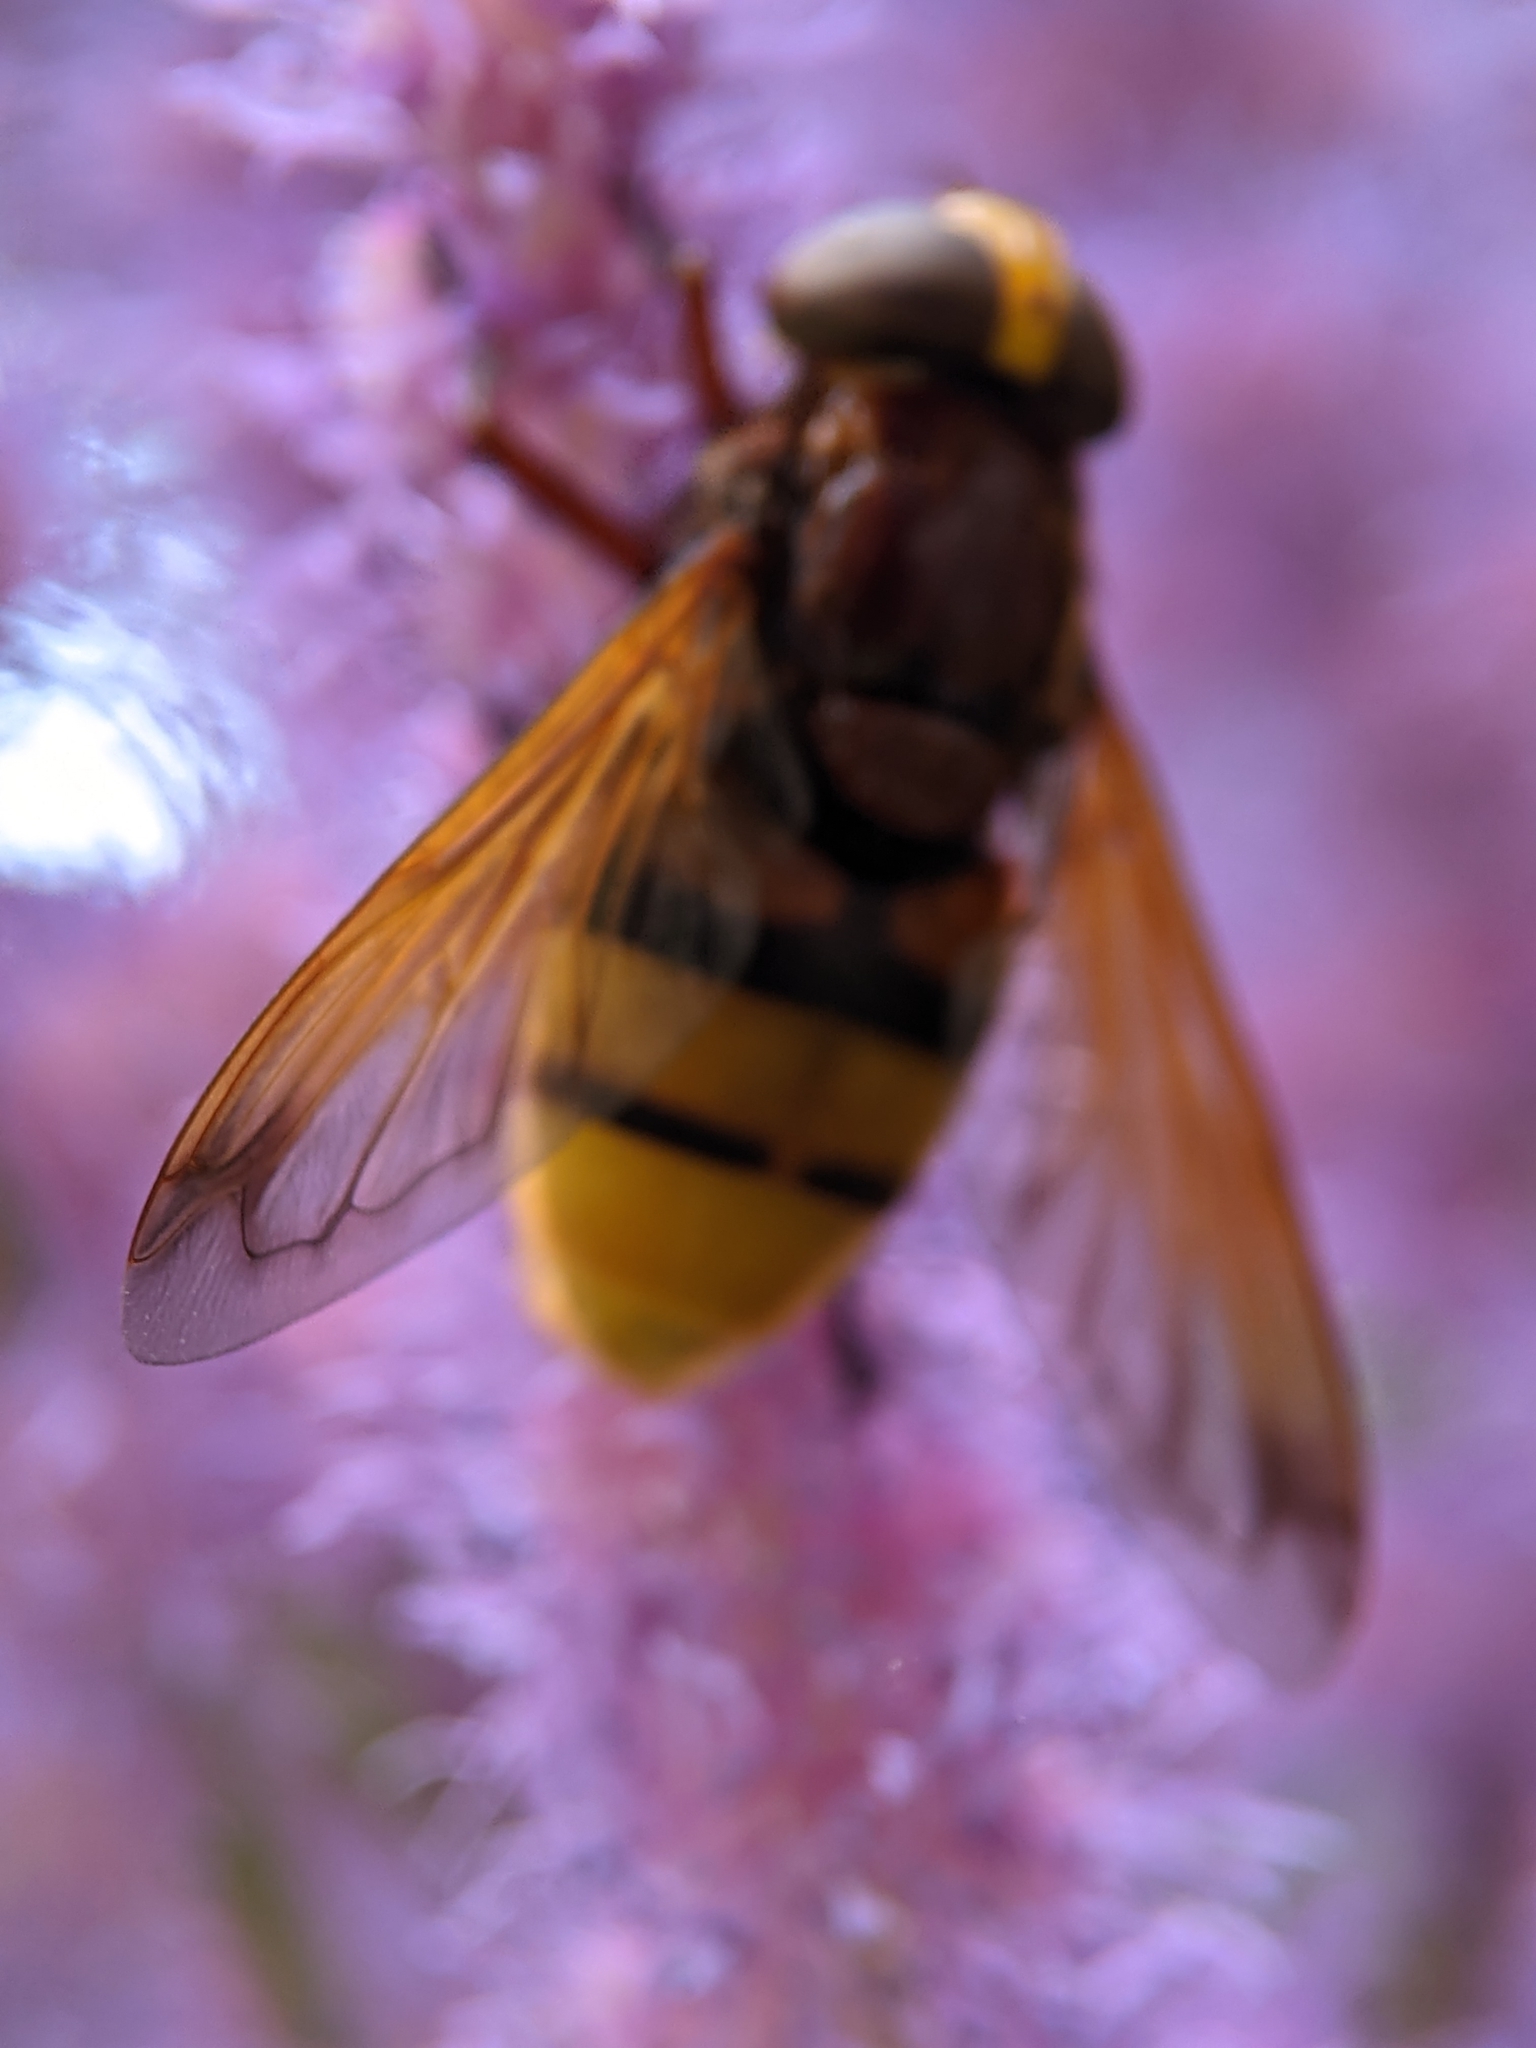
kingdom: Animalia
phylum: Arthropoda
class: Insecta
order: Diptera
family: Syrphidae
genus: Volucella
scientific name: Volucella zonaria
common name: Hornet hoverfly
